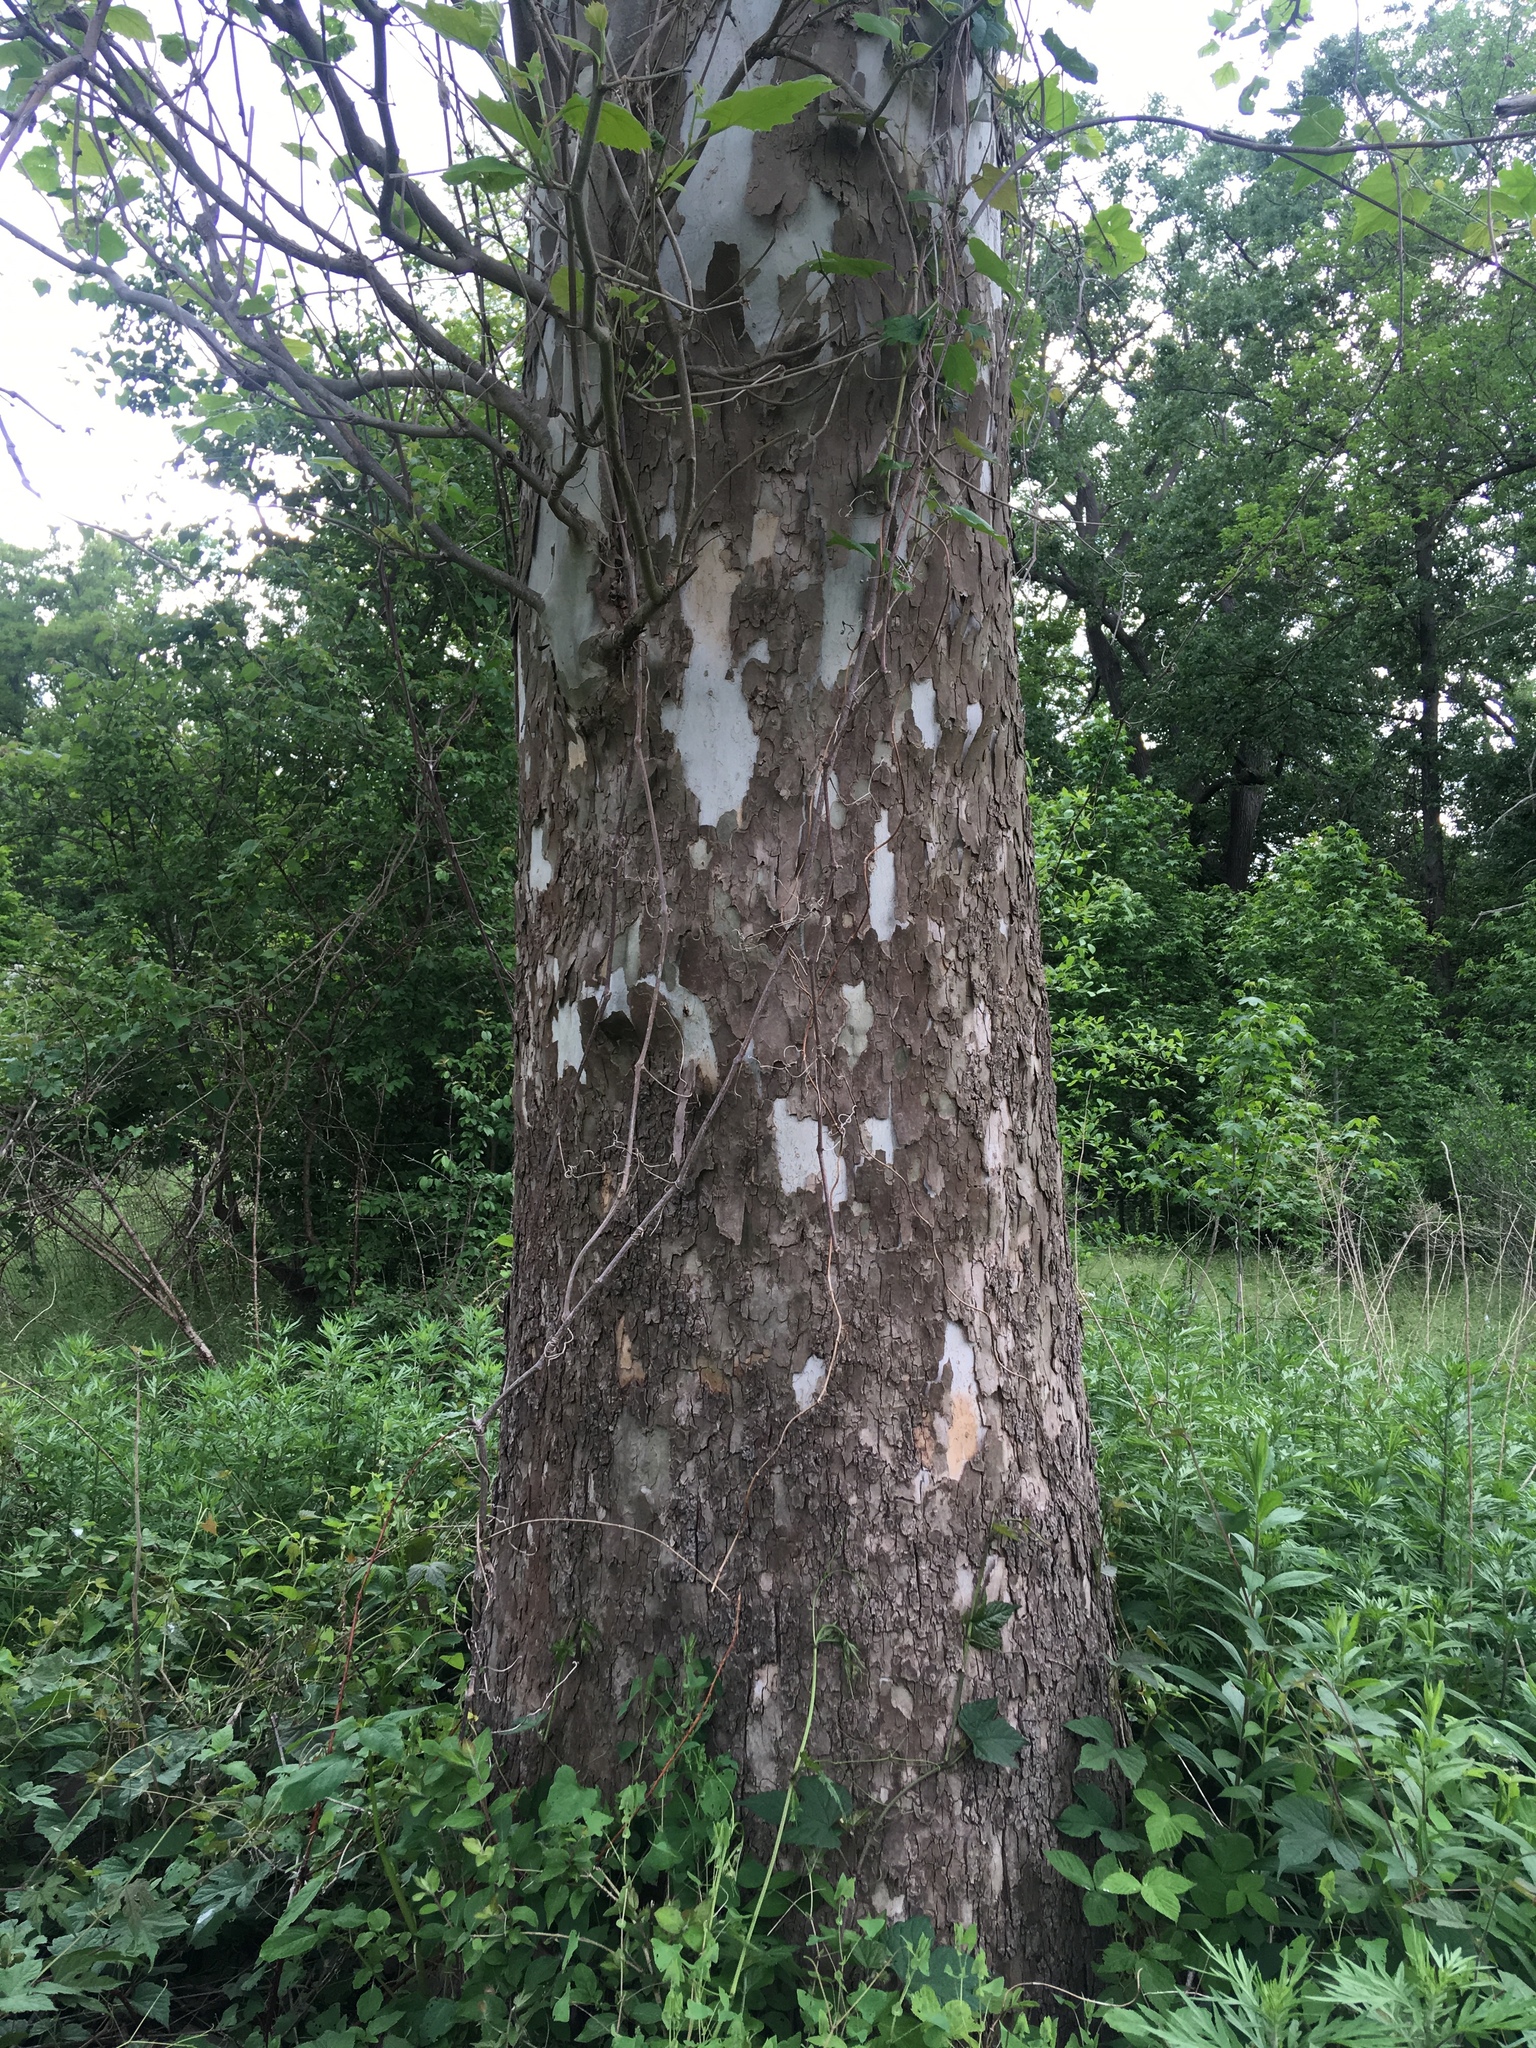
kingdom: Plantae
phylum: Tracheophyta
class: Magnoliopsida
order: Proteales
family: Platanaceae
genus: Platanus
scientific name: Platanus occidentalis
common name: American sycamore
